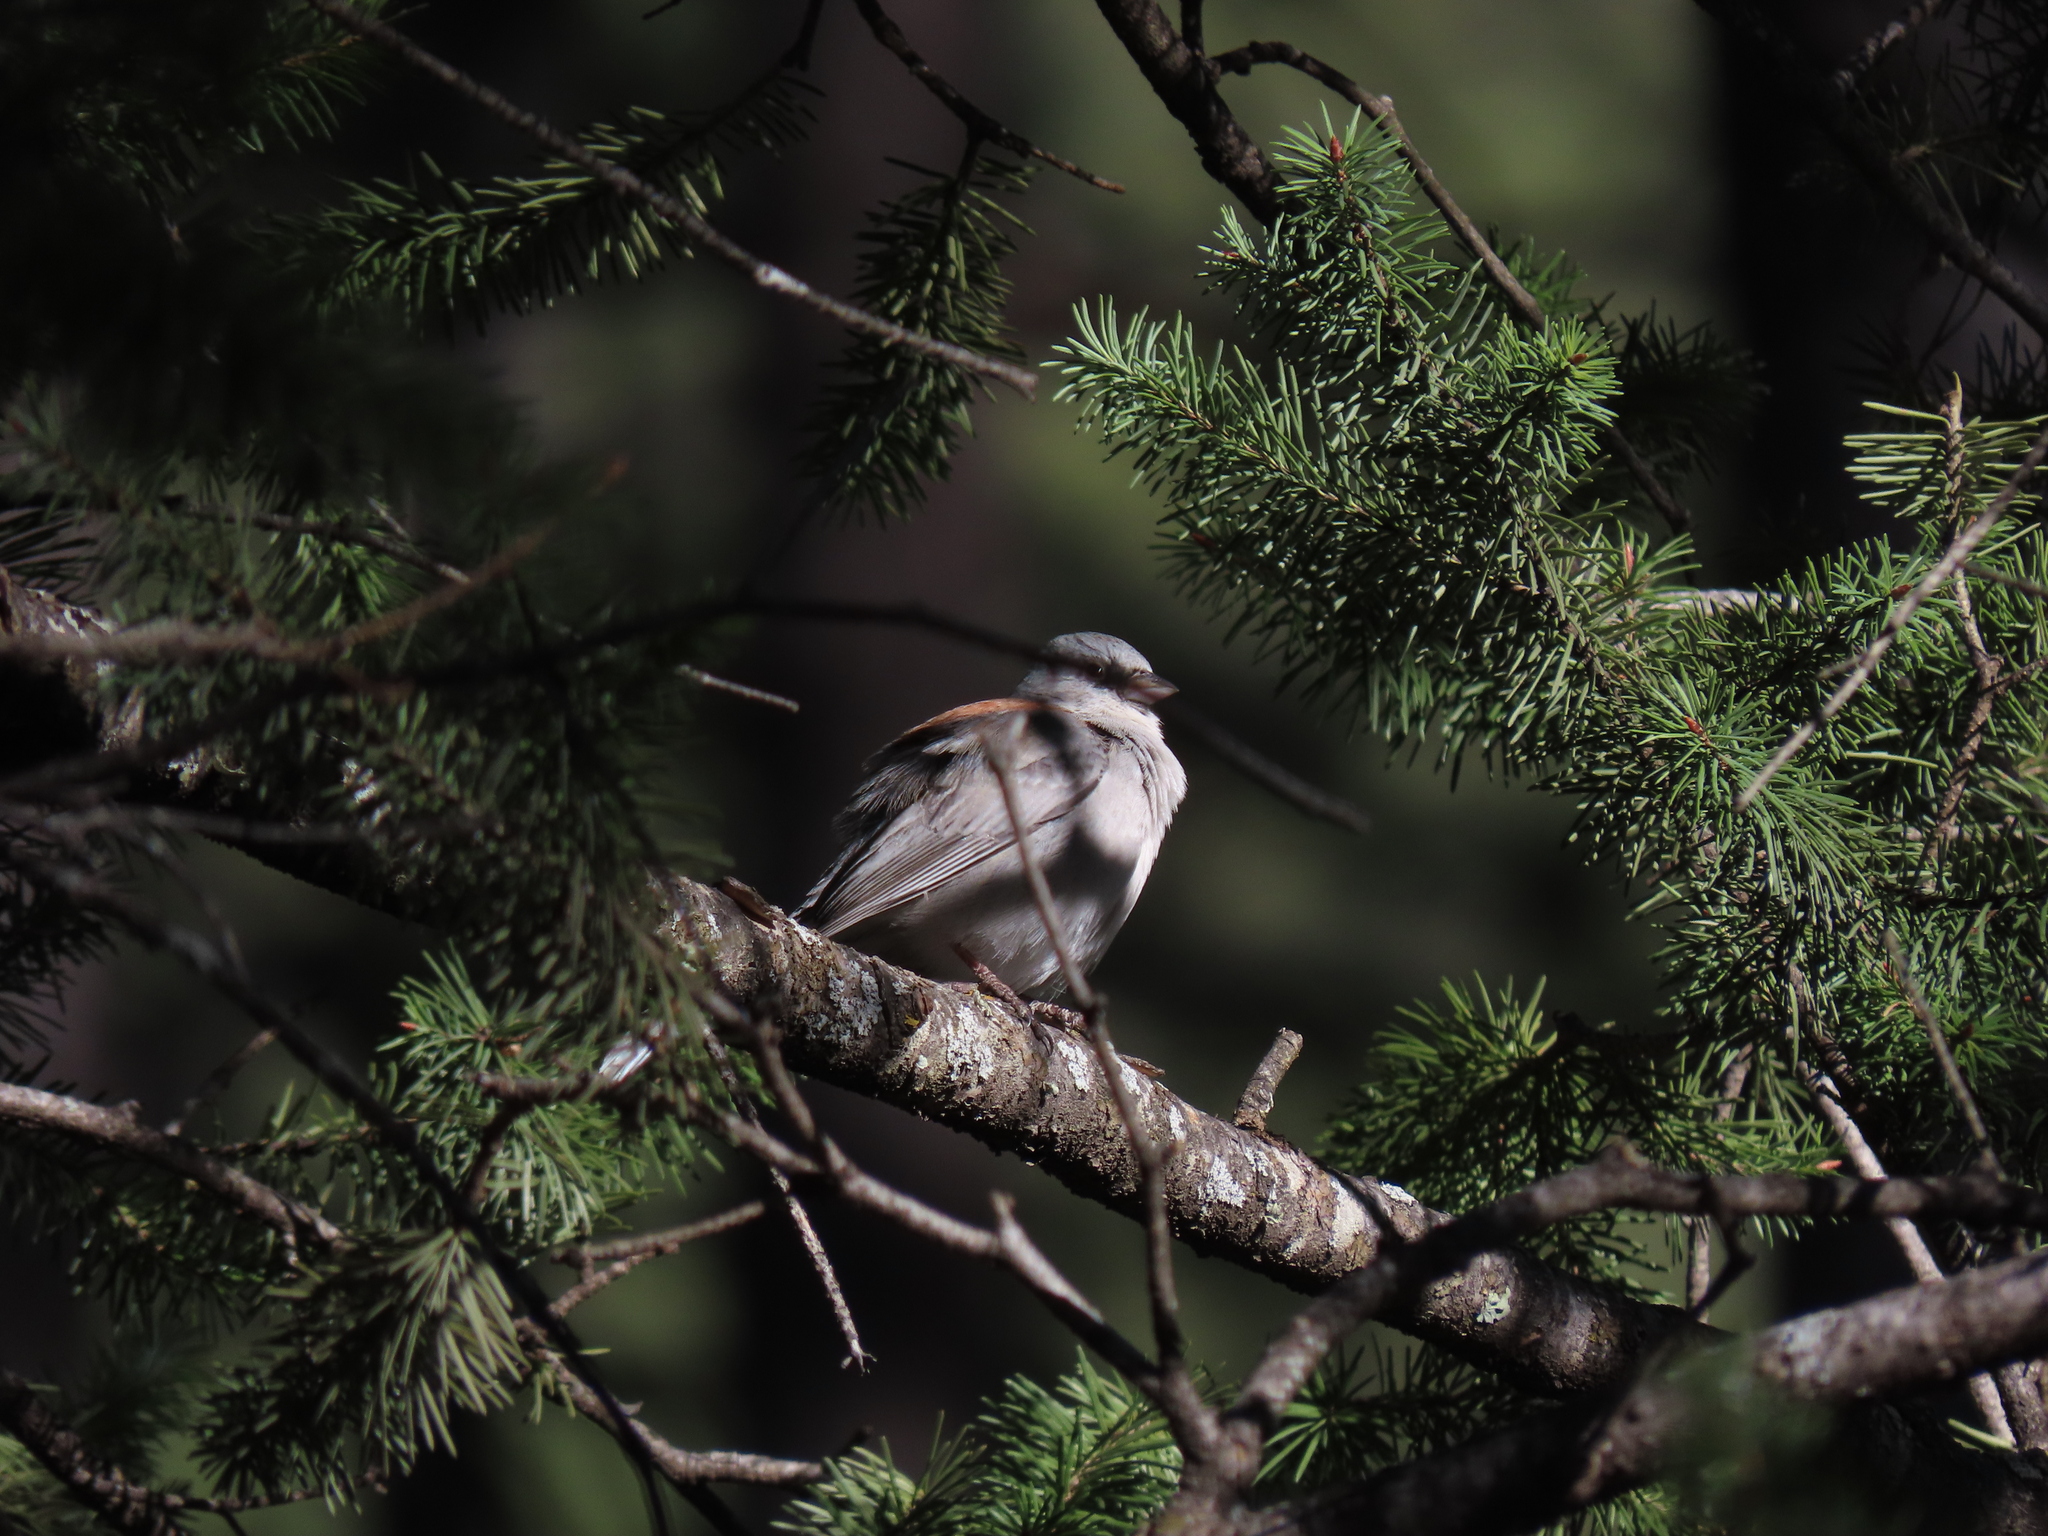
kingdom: Animalia
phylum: Chordata
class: Aves
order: Passeriformes
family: Passerellidae
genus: Junco
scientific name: Junco hyemalis
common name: Dark-eyed junco
